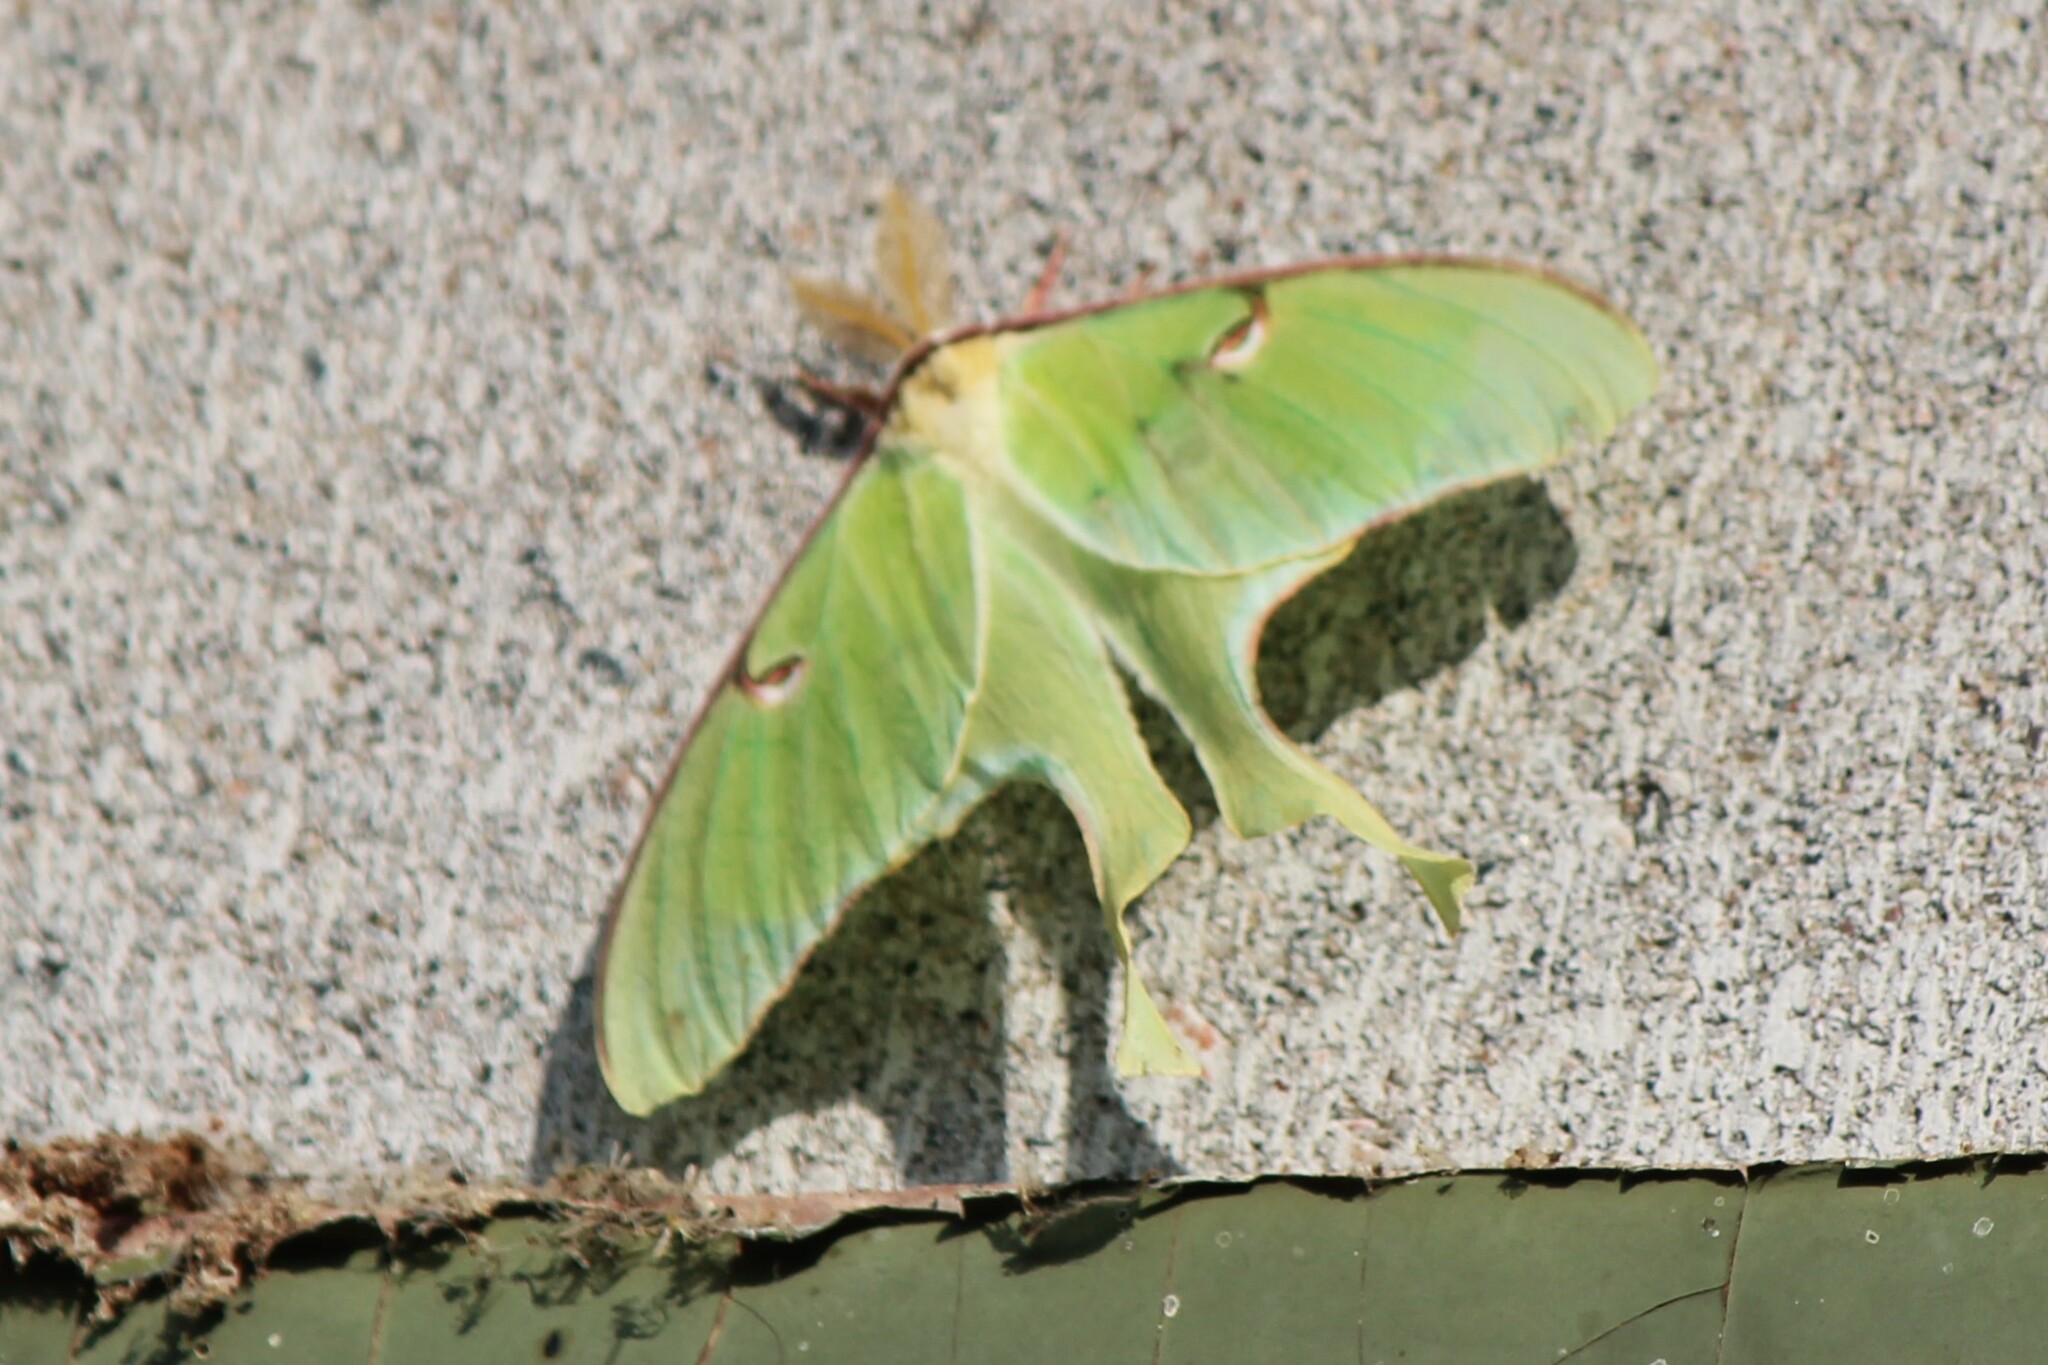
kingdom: Animalia
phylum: Arthropoda
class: Insecta
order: Lepidoptera
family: Saturniidae
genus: Actias
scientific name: Actias luna
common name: Luna moth
